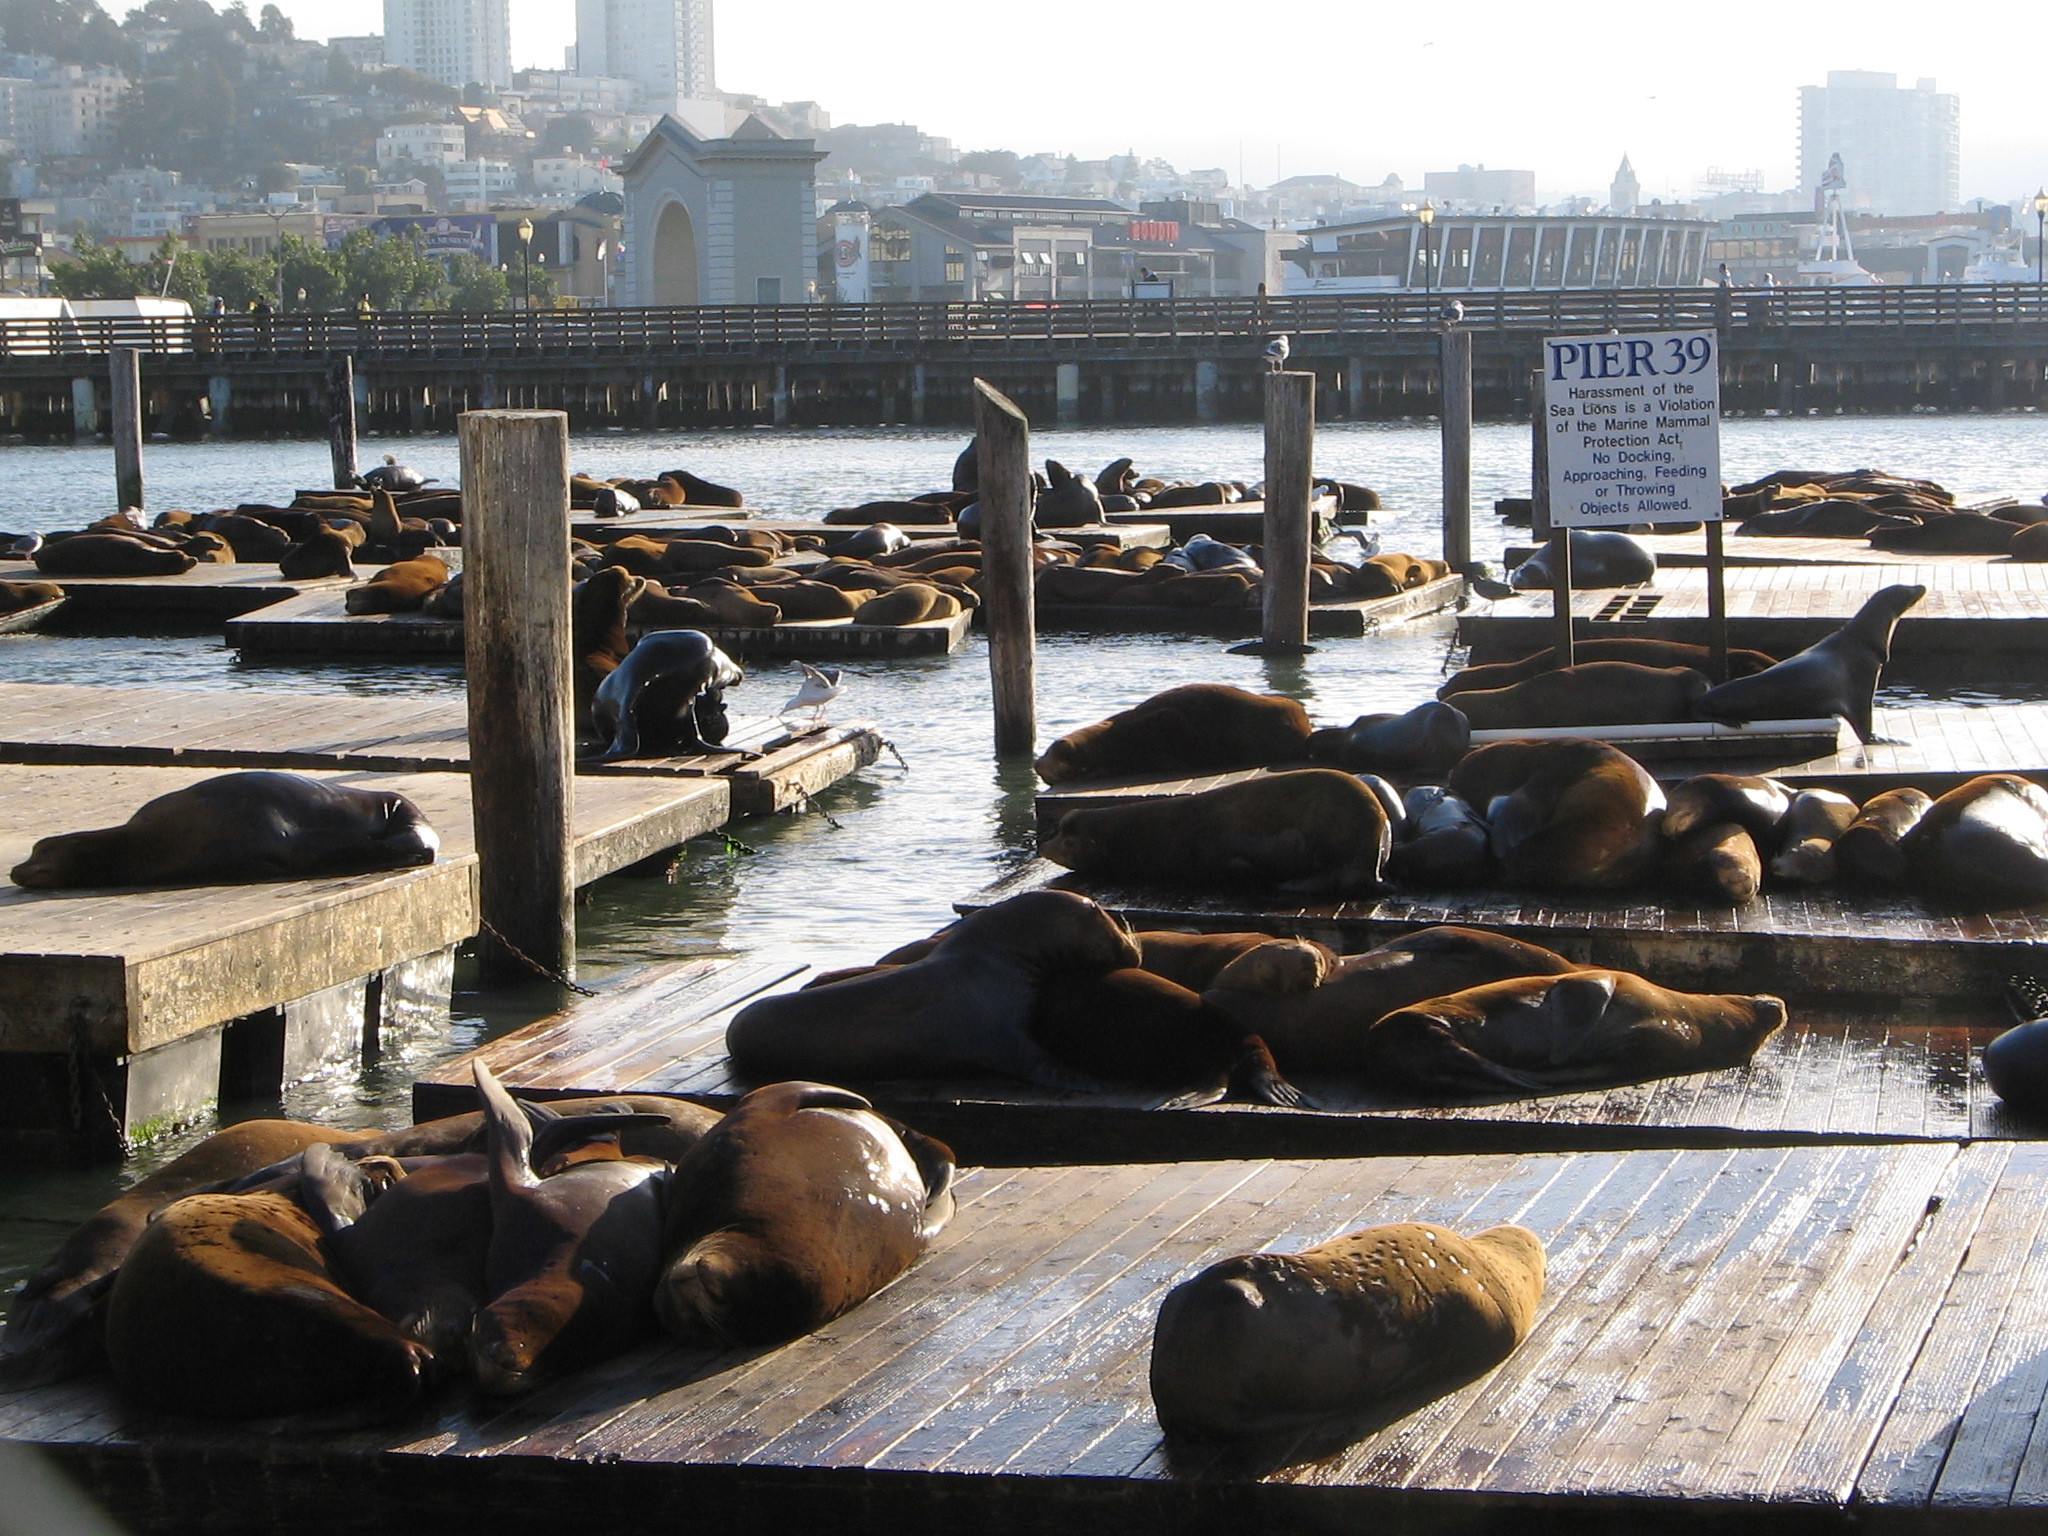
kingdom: Animalia
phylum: Chordata
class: Mammalia
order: Carnivora
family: Otariidae
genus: Zalophus
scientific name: Zalophus californianus
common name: California sea lion
